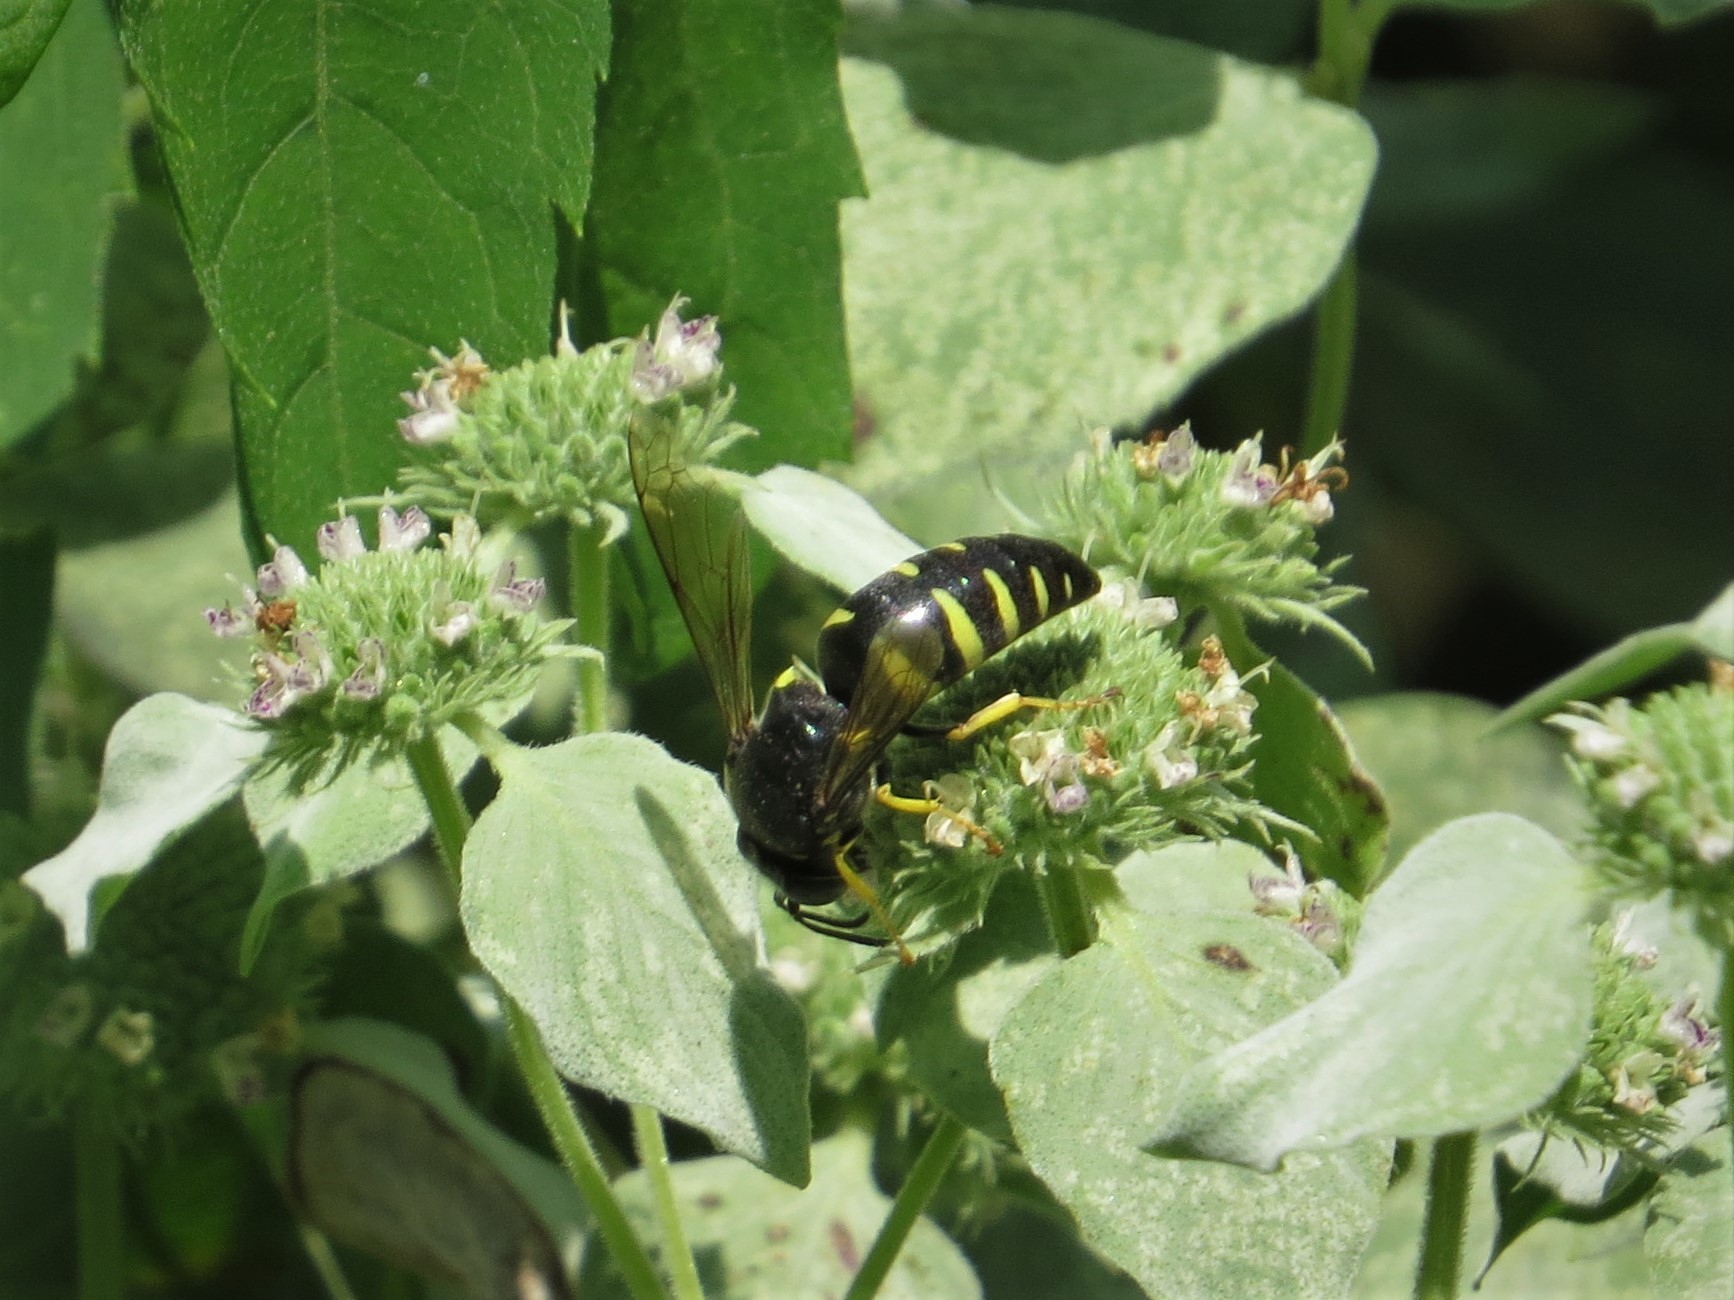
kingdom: Animalia
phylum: Arthropoda
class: Insecta
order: Hymenoptera
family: Crabronidae
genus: Bicyrtes
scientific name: Bicyrtes quadrifasciatus
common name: Four-banded stink bug hunter wasp
